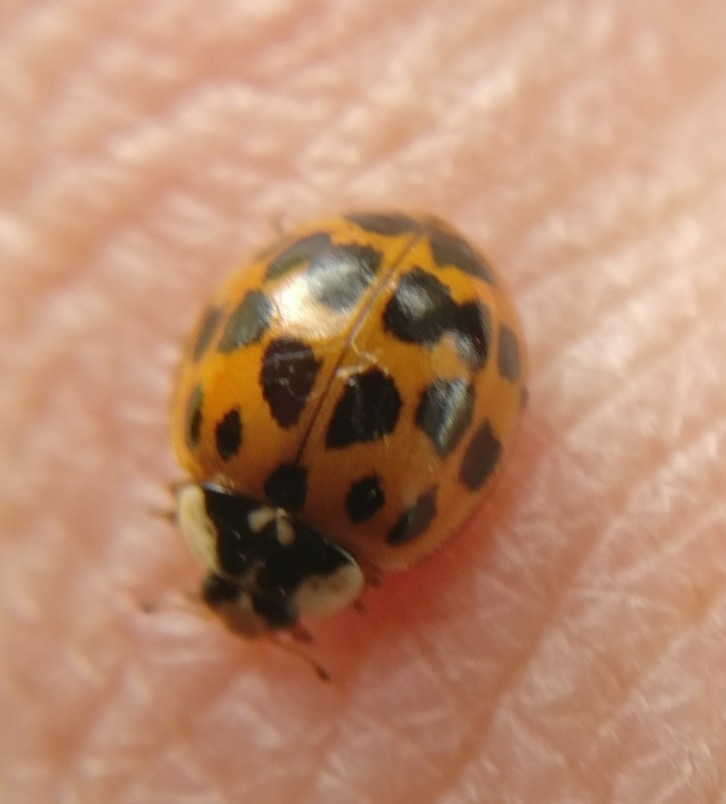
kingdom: Animalia
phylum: Arthropoda
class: Insecta
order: Coleoptera
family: Coccinellidae
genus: Harmonia
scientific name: Harmonia axyridis
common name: Harlequin ladybird
